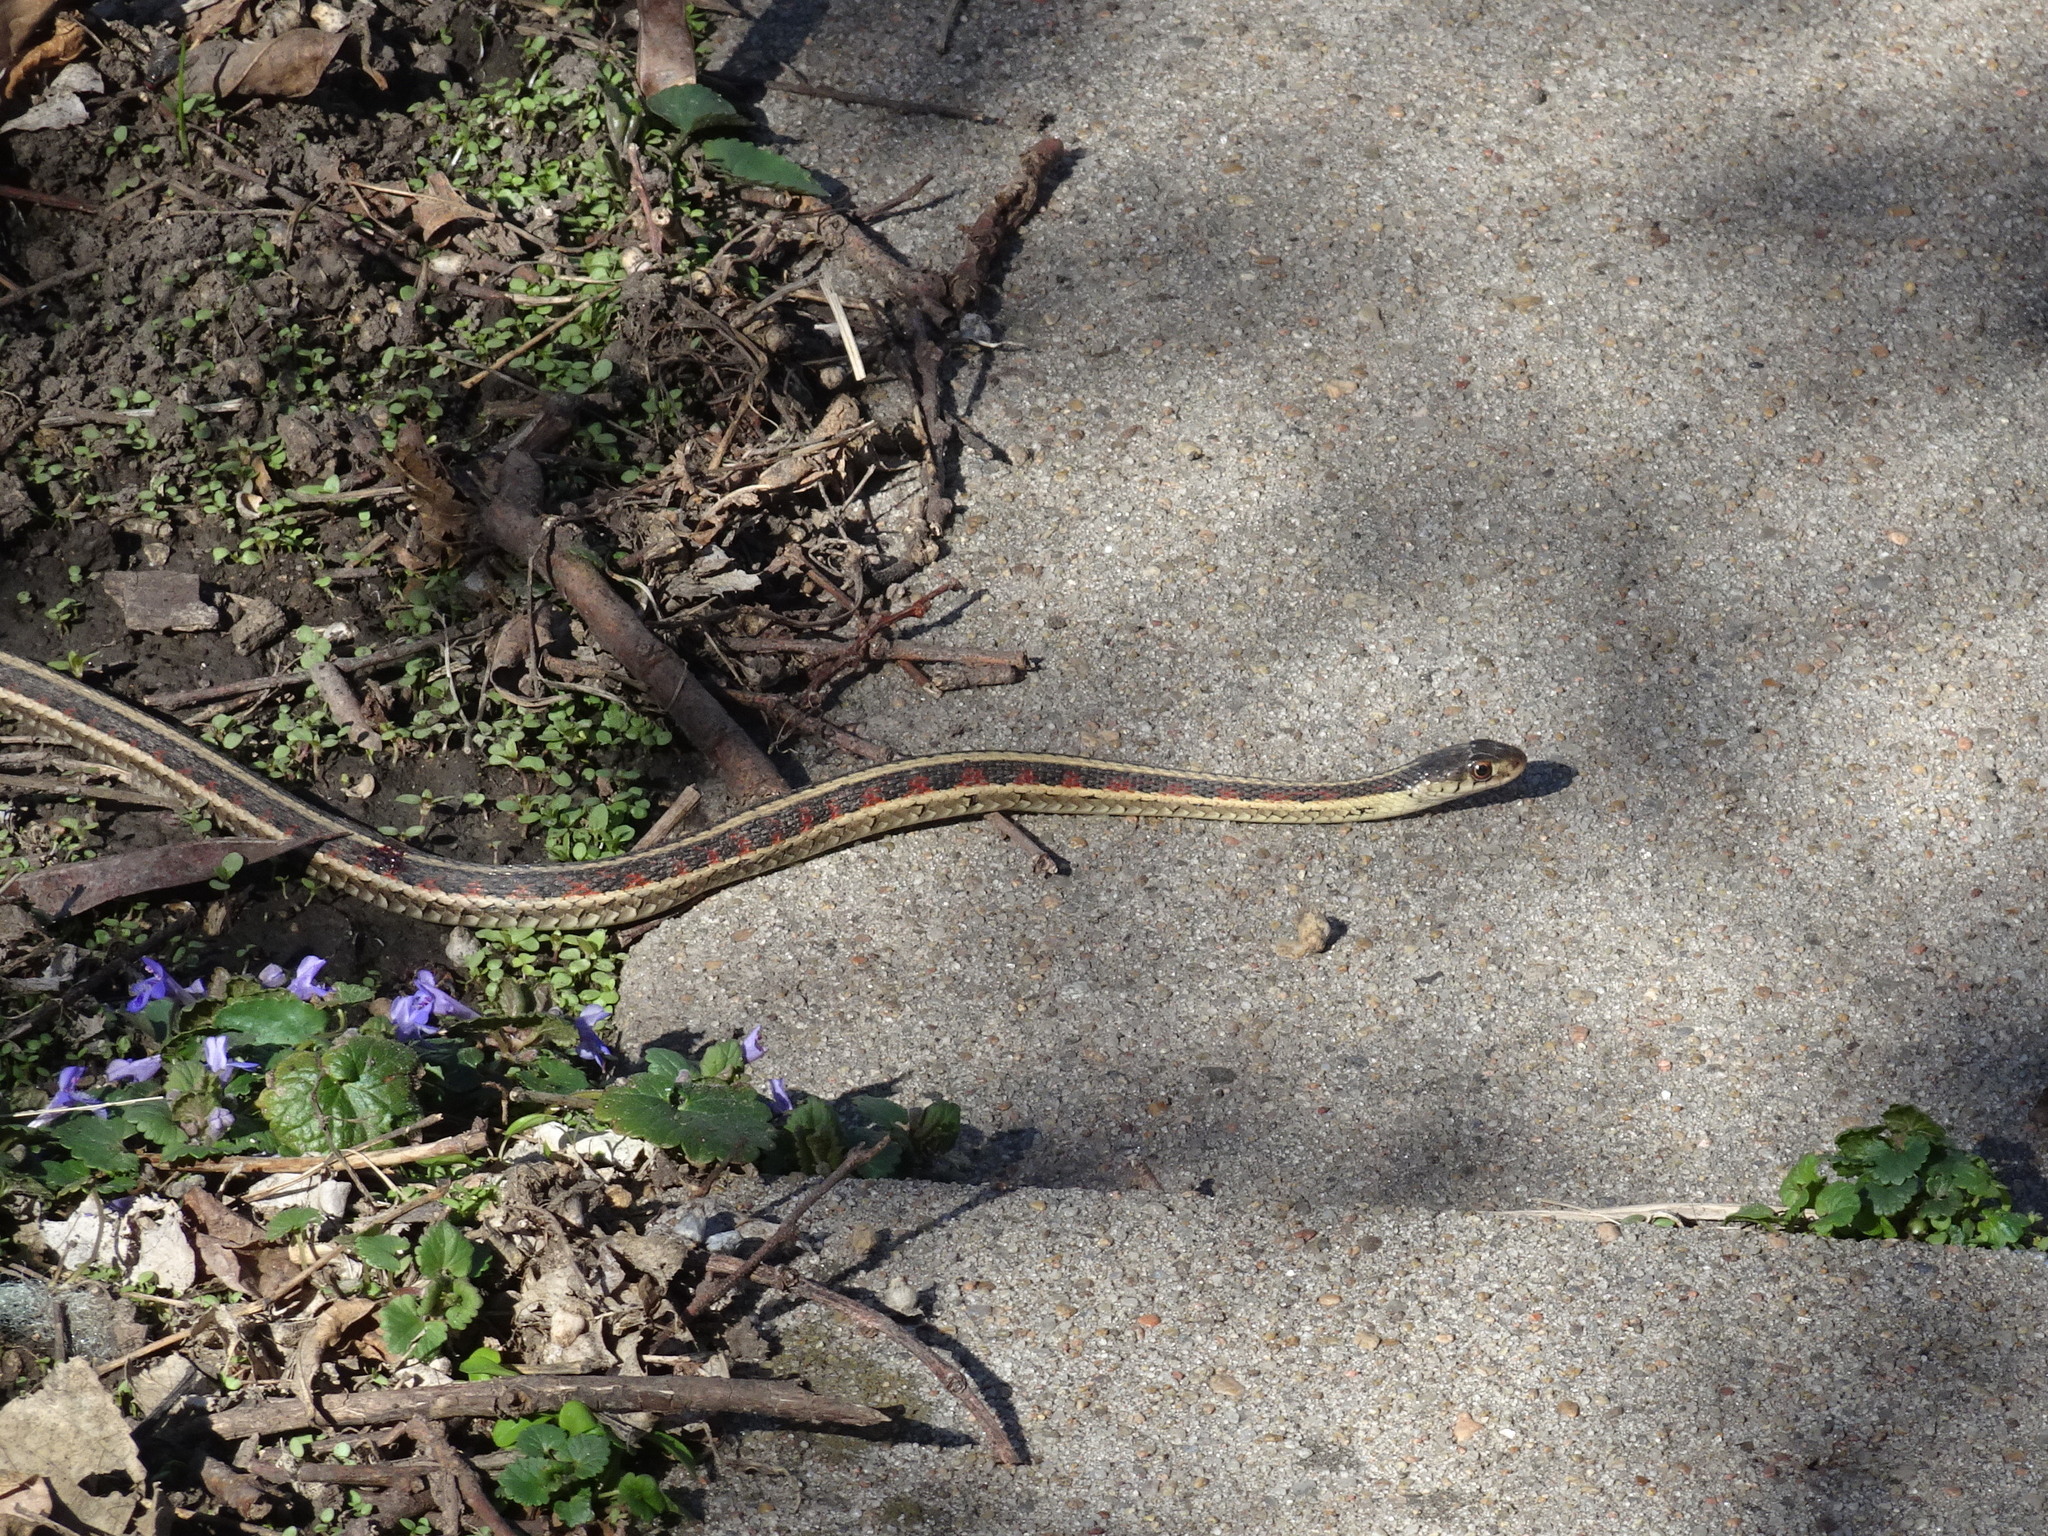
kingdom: Animalia
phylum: Chordata
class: Squamata
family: Colubridae
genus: Thamnophis
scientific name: Thamnophis sirtalis
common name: Common garter snake
